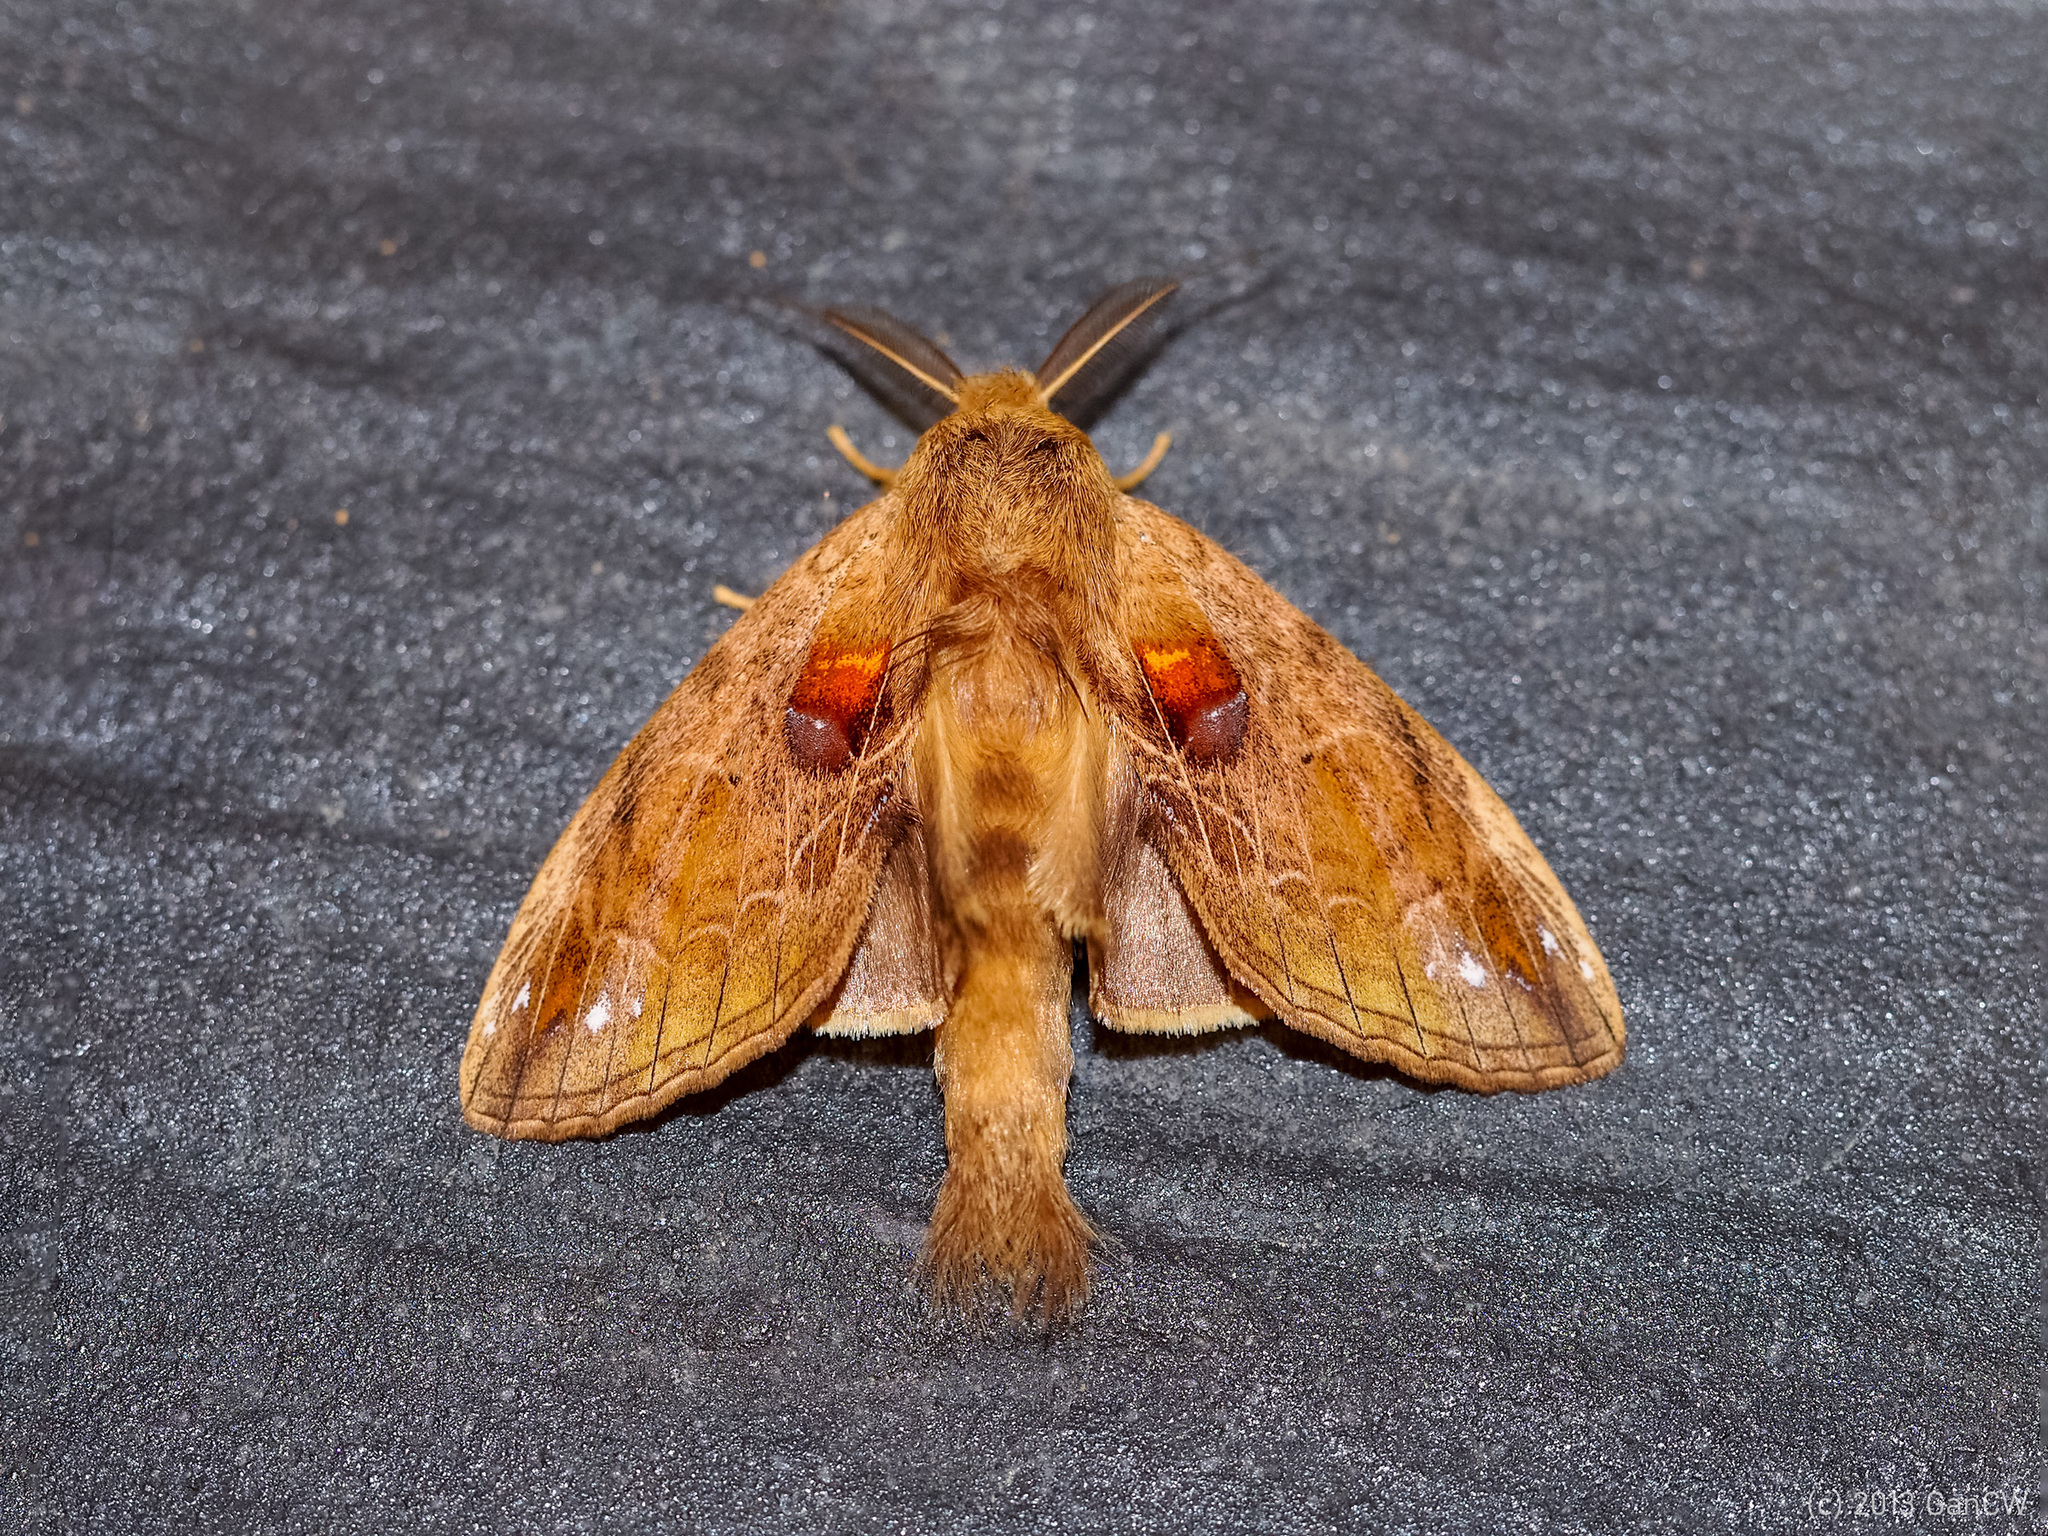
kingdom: Animalia
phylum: Arthropoda
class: Insecta
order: Lepidoptera
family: Notodontidae
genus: Rodneya
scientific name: Rodneya caudata
